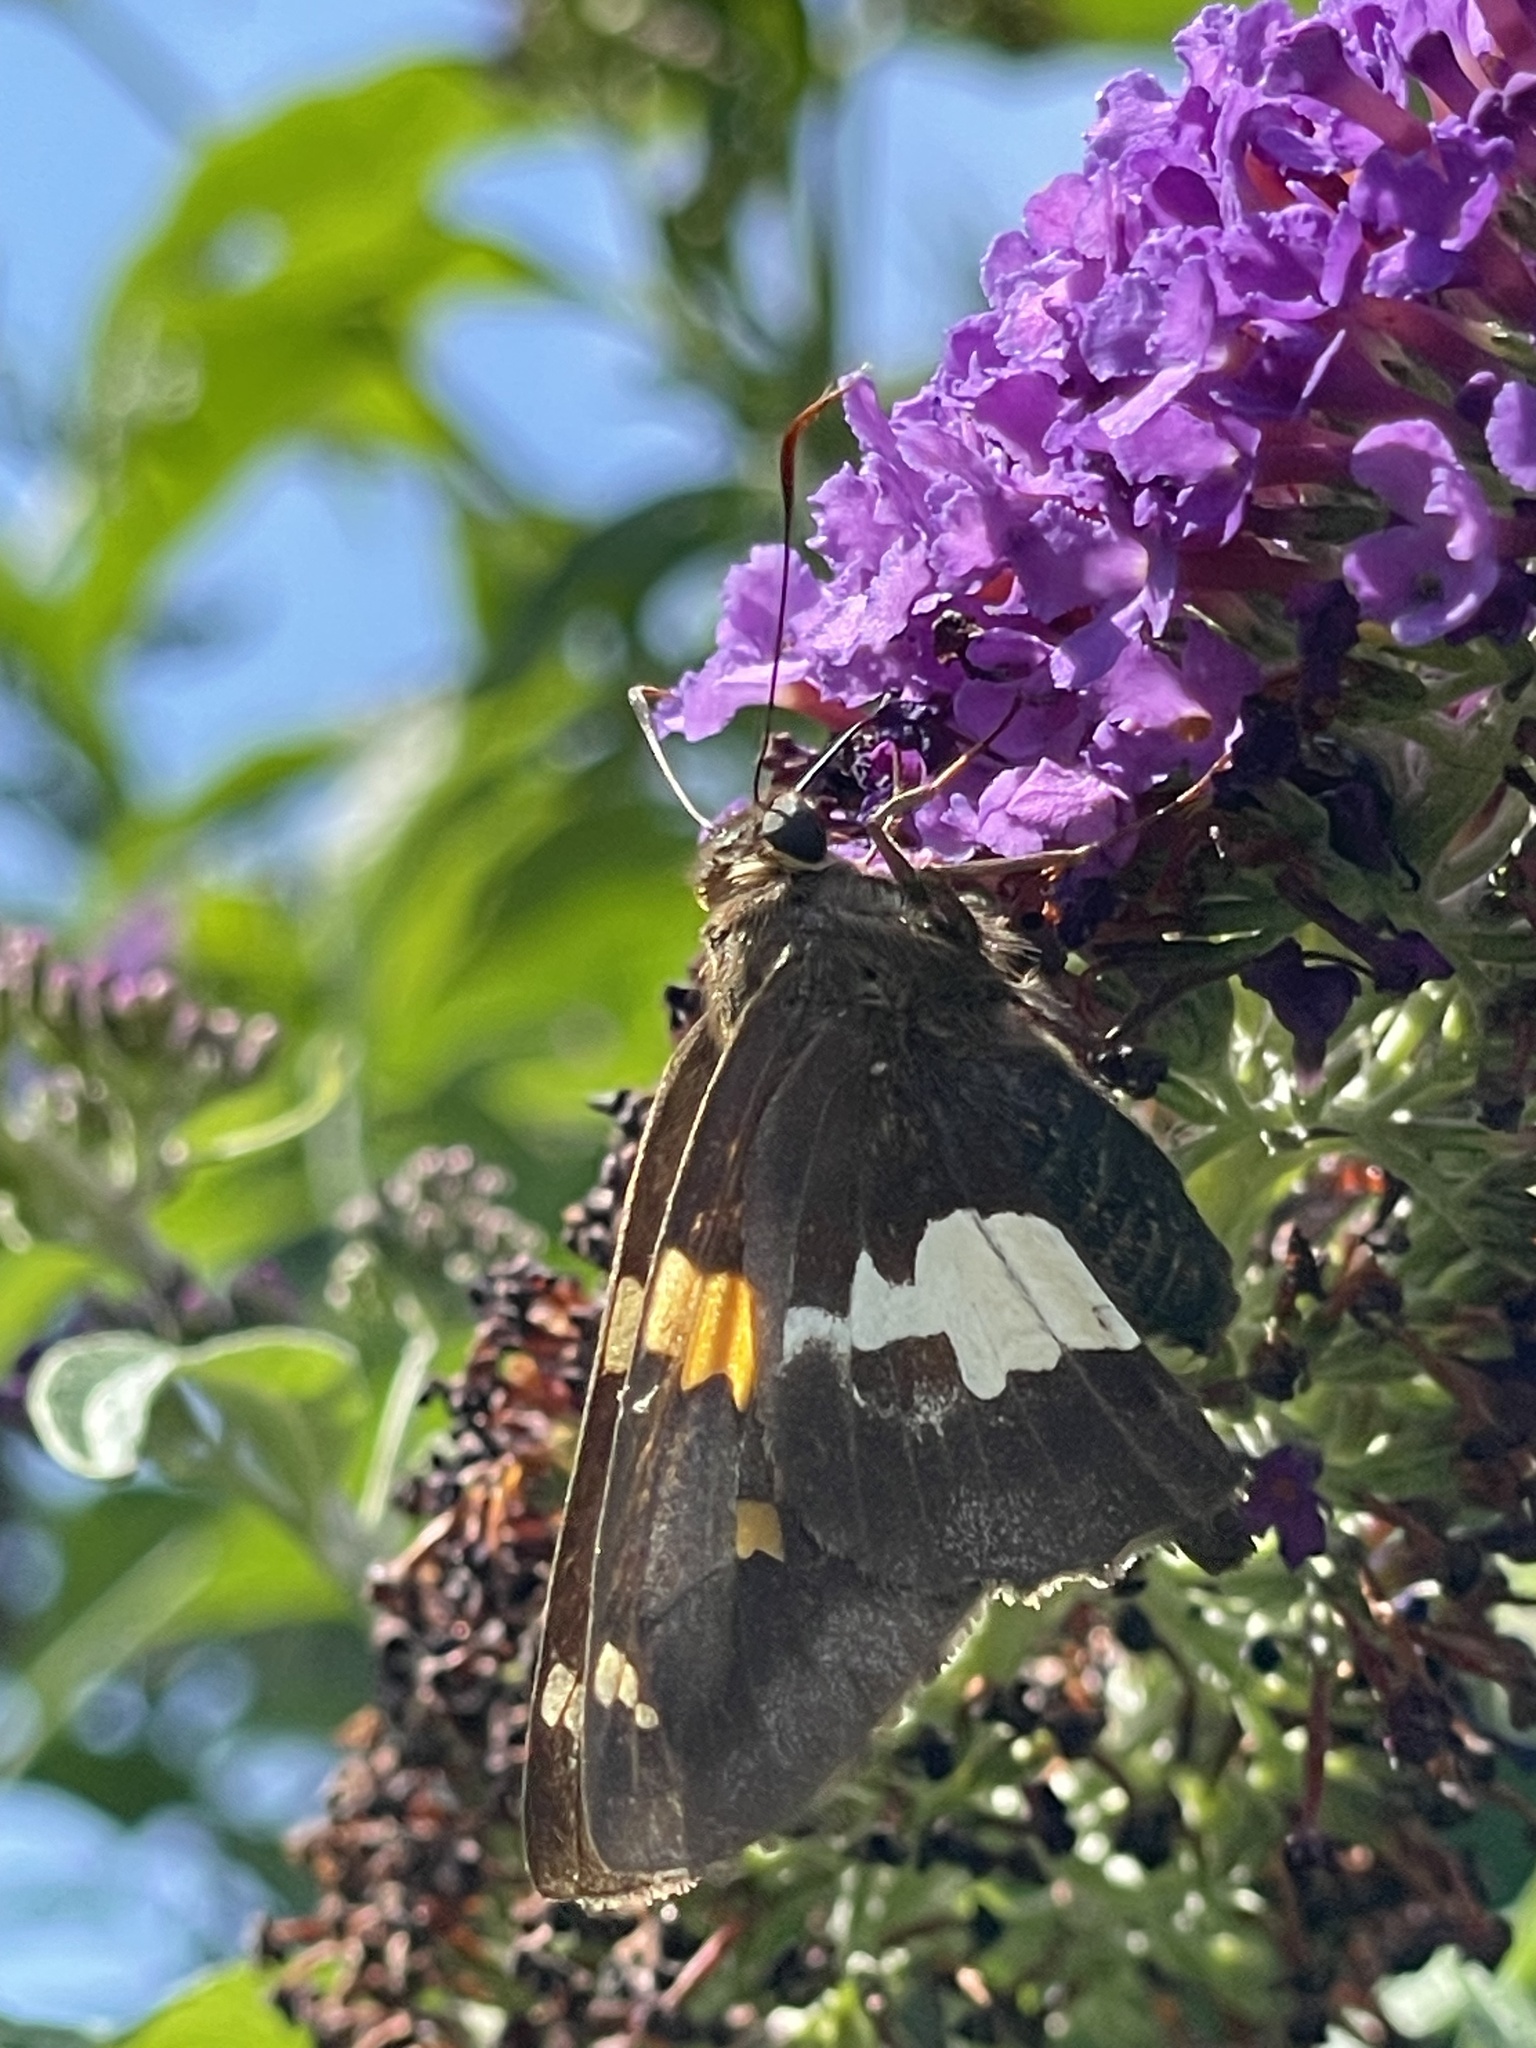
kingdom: Animalia
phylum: Arthropoda
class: Insecta
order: Lepidoptera
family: Hesperiidae
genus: Epargyreus
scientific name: Epargyreus clarus
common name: Silver-spotted skipper
